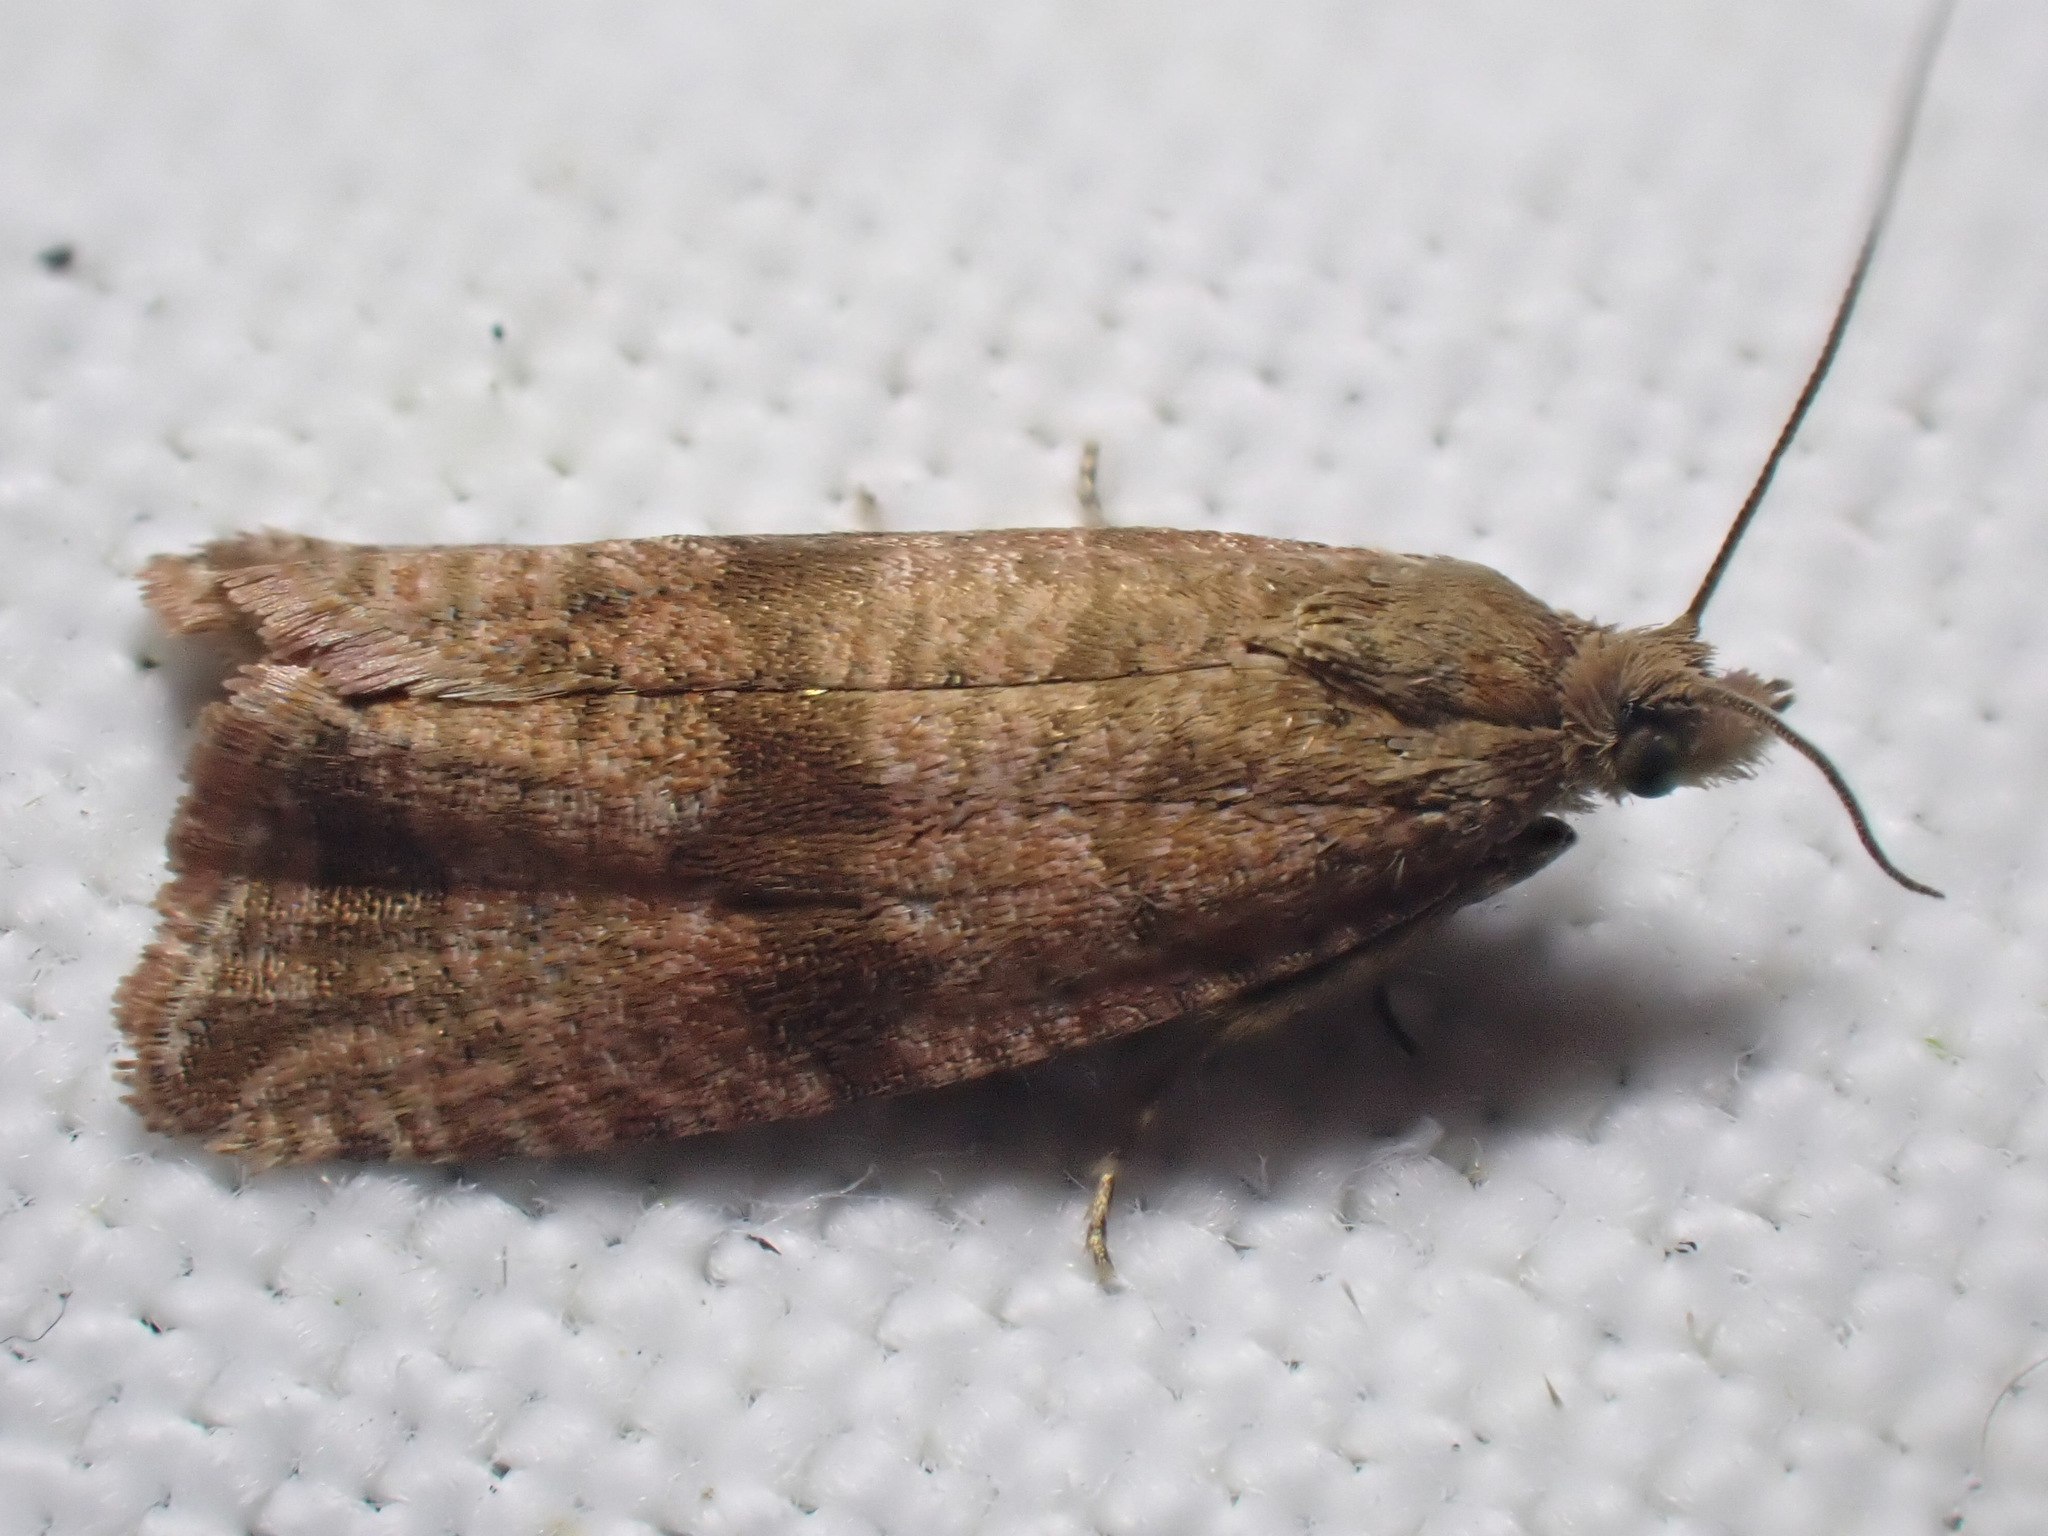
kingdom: Animalia
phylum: Arthropoda
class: Insecta
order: Lepidoptera
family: Tortricidae
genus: Celypha
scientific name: Celypha striana
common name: Barred marble
